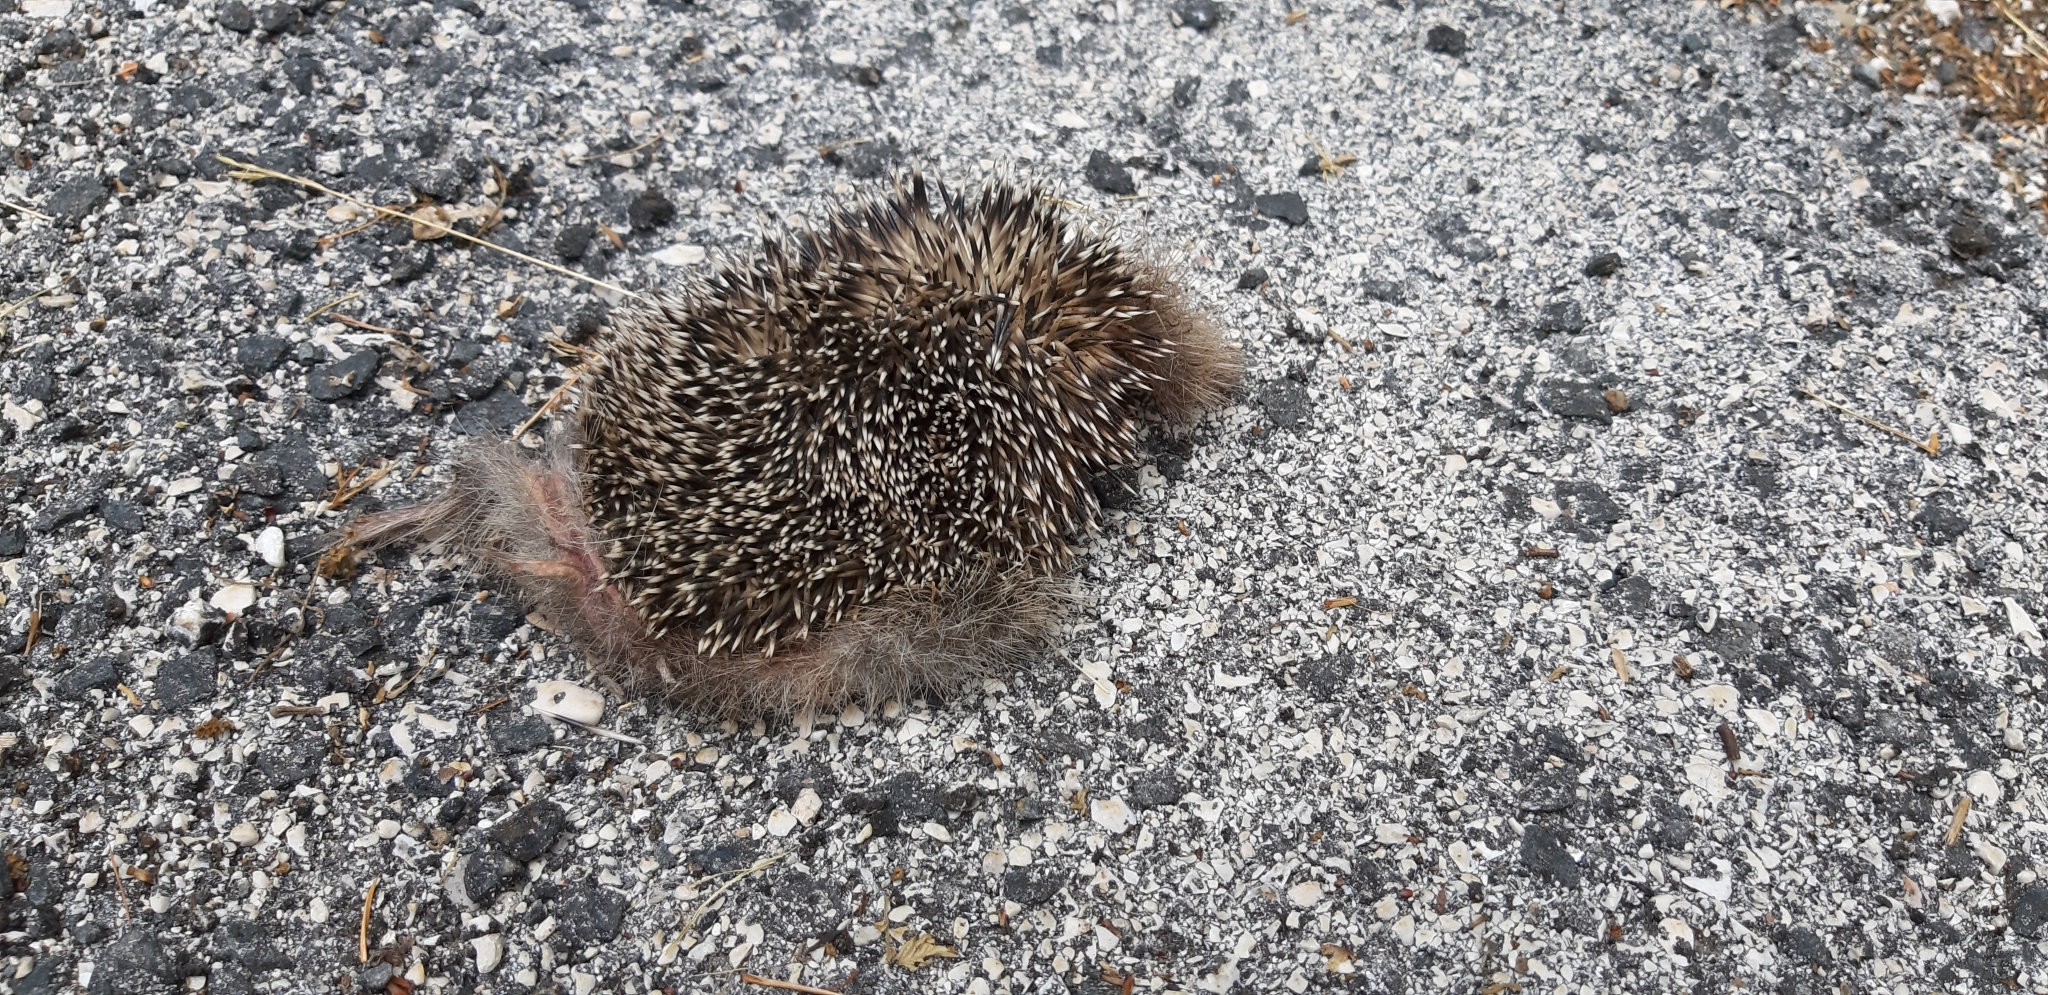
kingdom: Animalia
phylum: Chordata
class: Mammalia
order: Erinaceomorpha
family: Erinaceidae
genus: Erinaceus
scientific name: Erinaceus europaeus
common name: West european hedgehog
